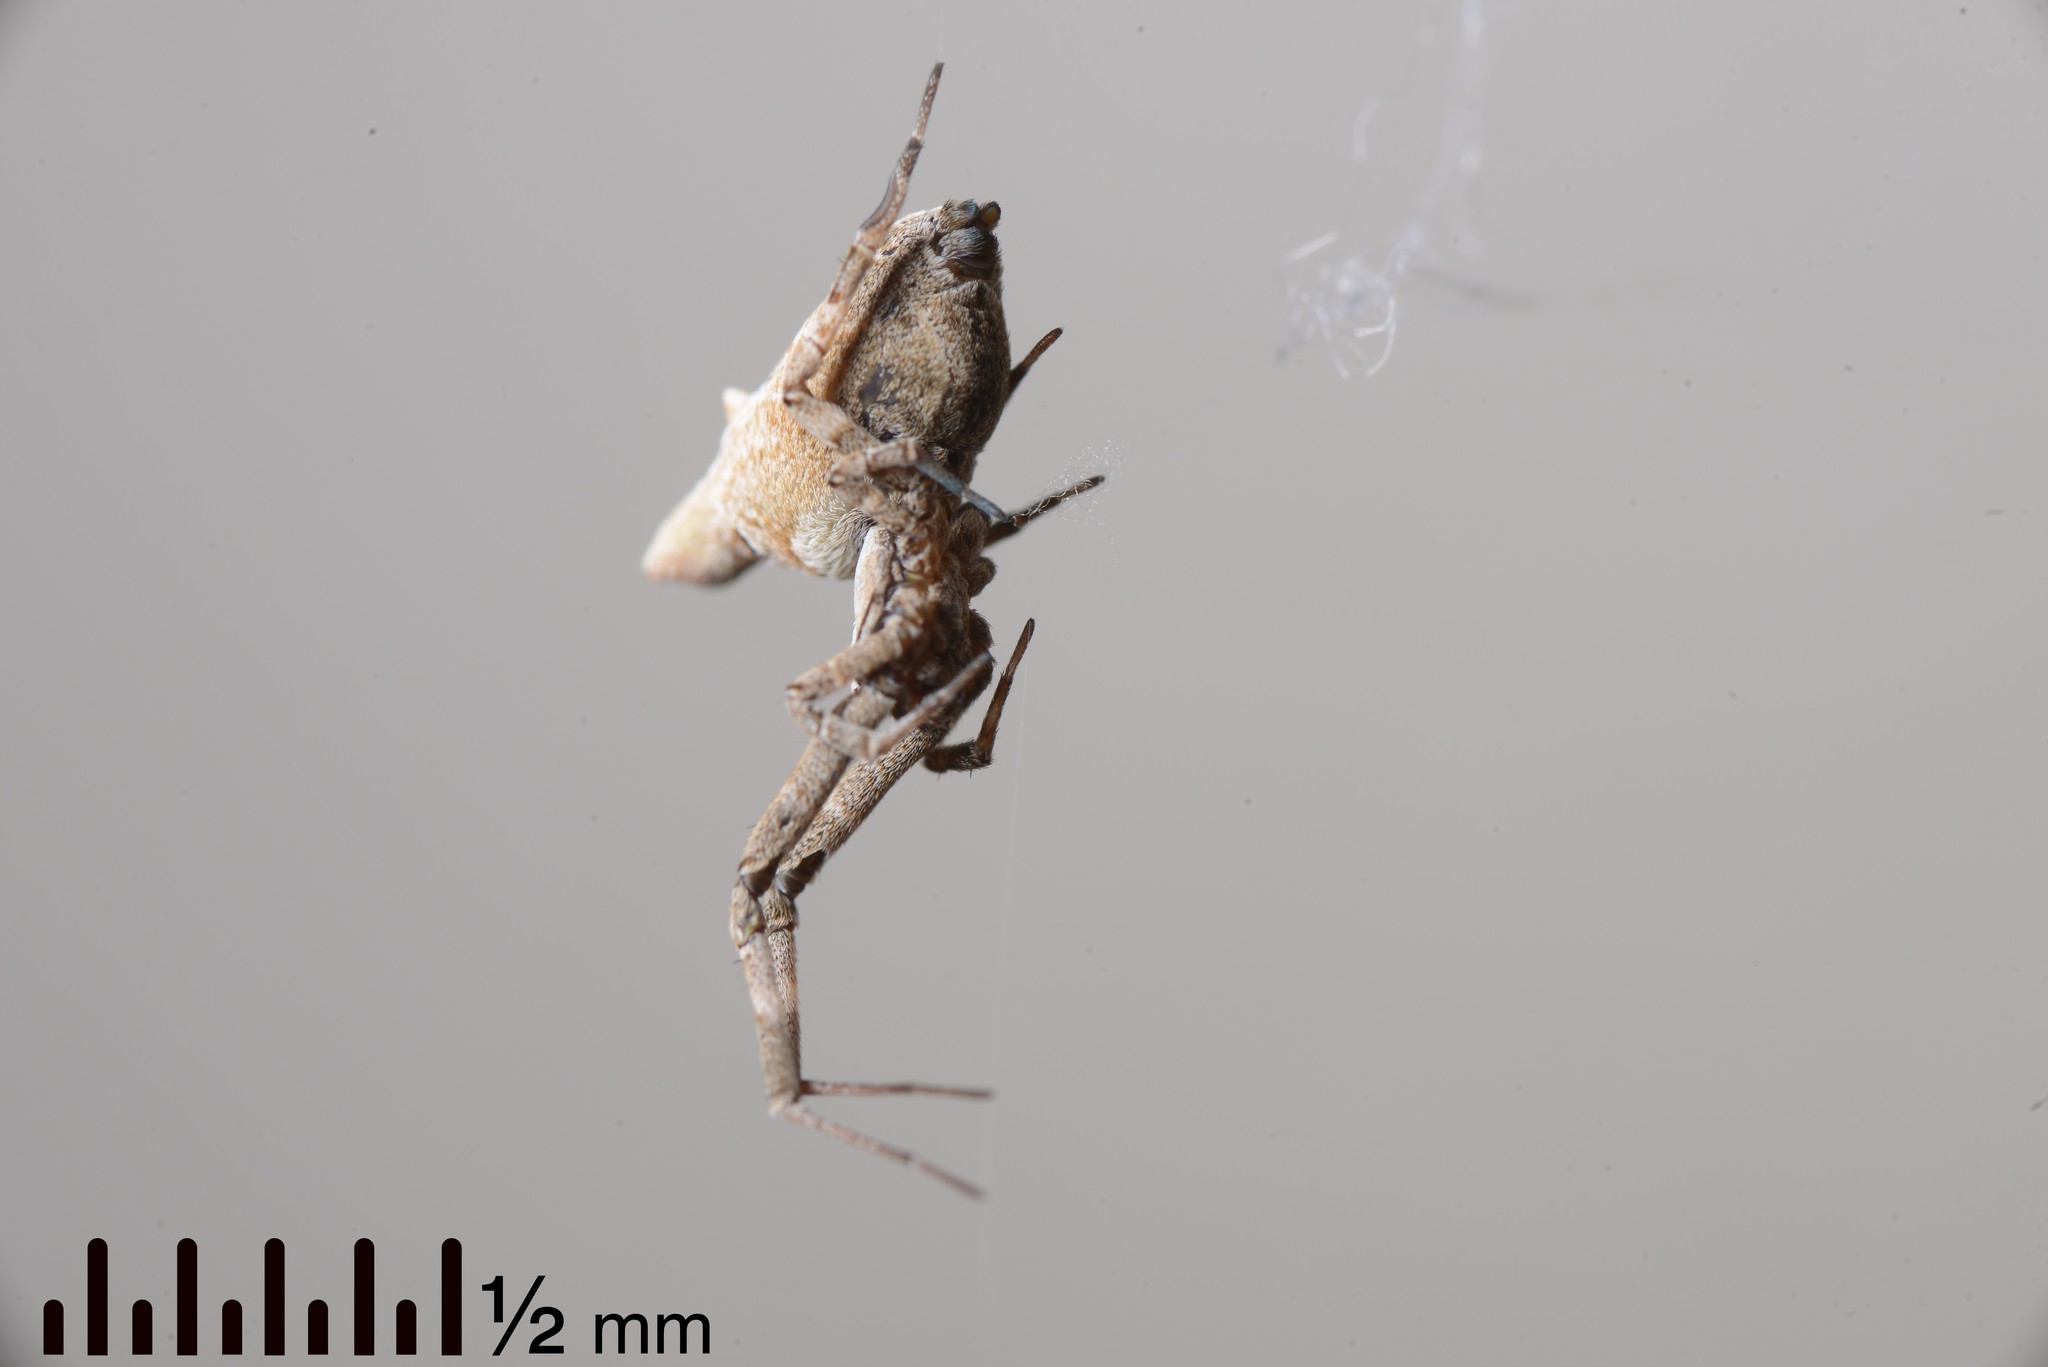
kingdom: Animalia
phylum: Arthropoda
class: Arachnida
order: Araneae
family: Uloboridae
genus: Philoponella
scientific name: Philoponella congregabilis
